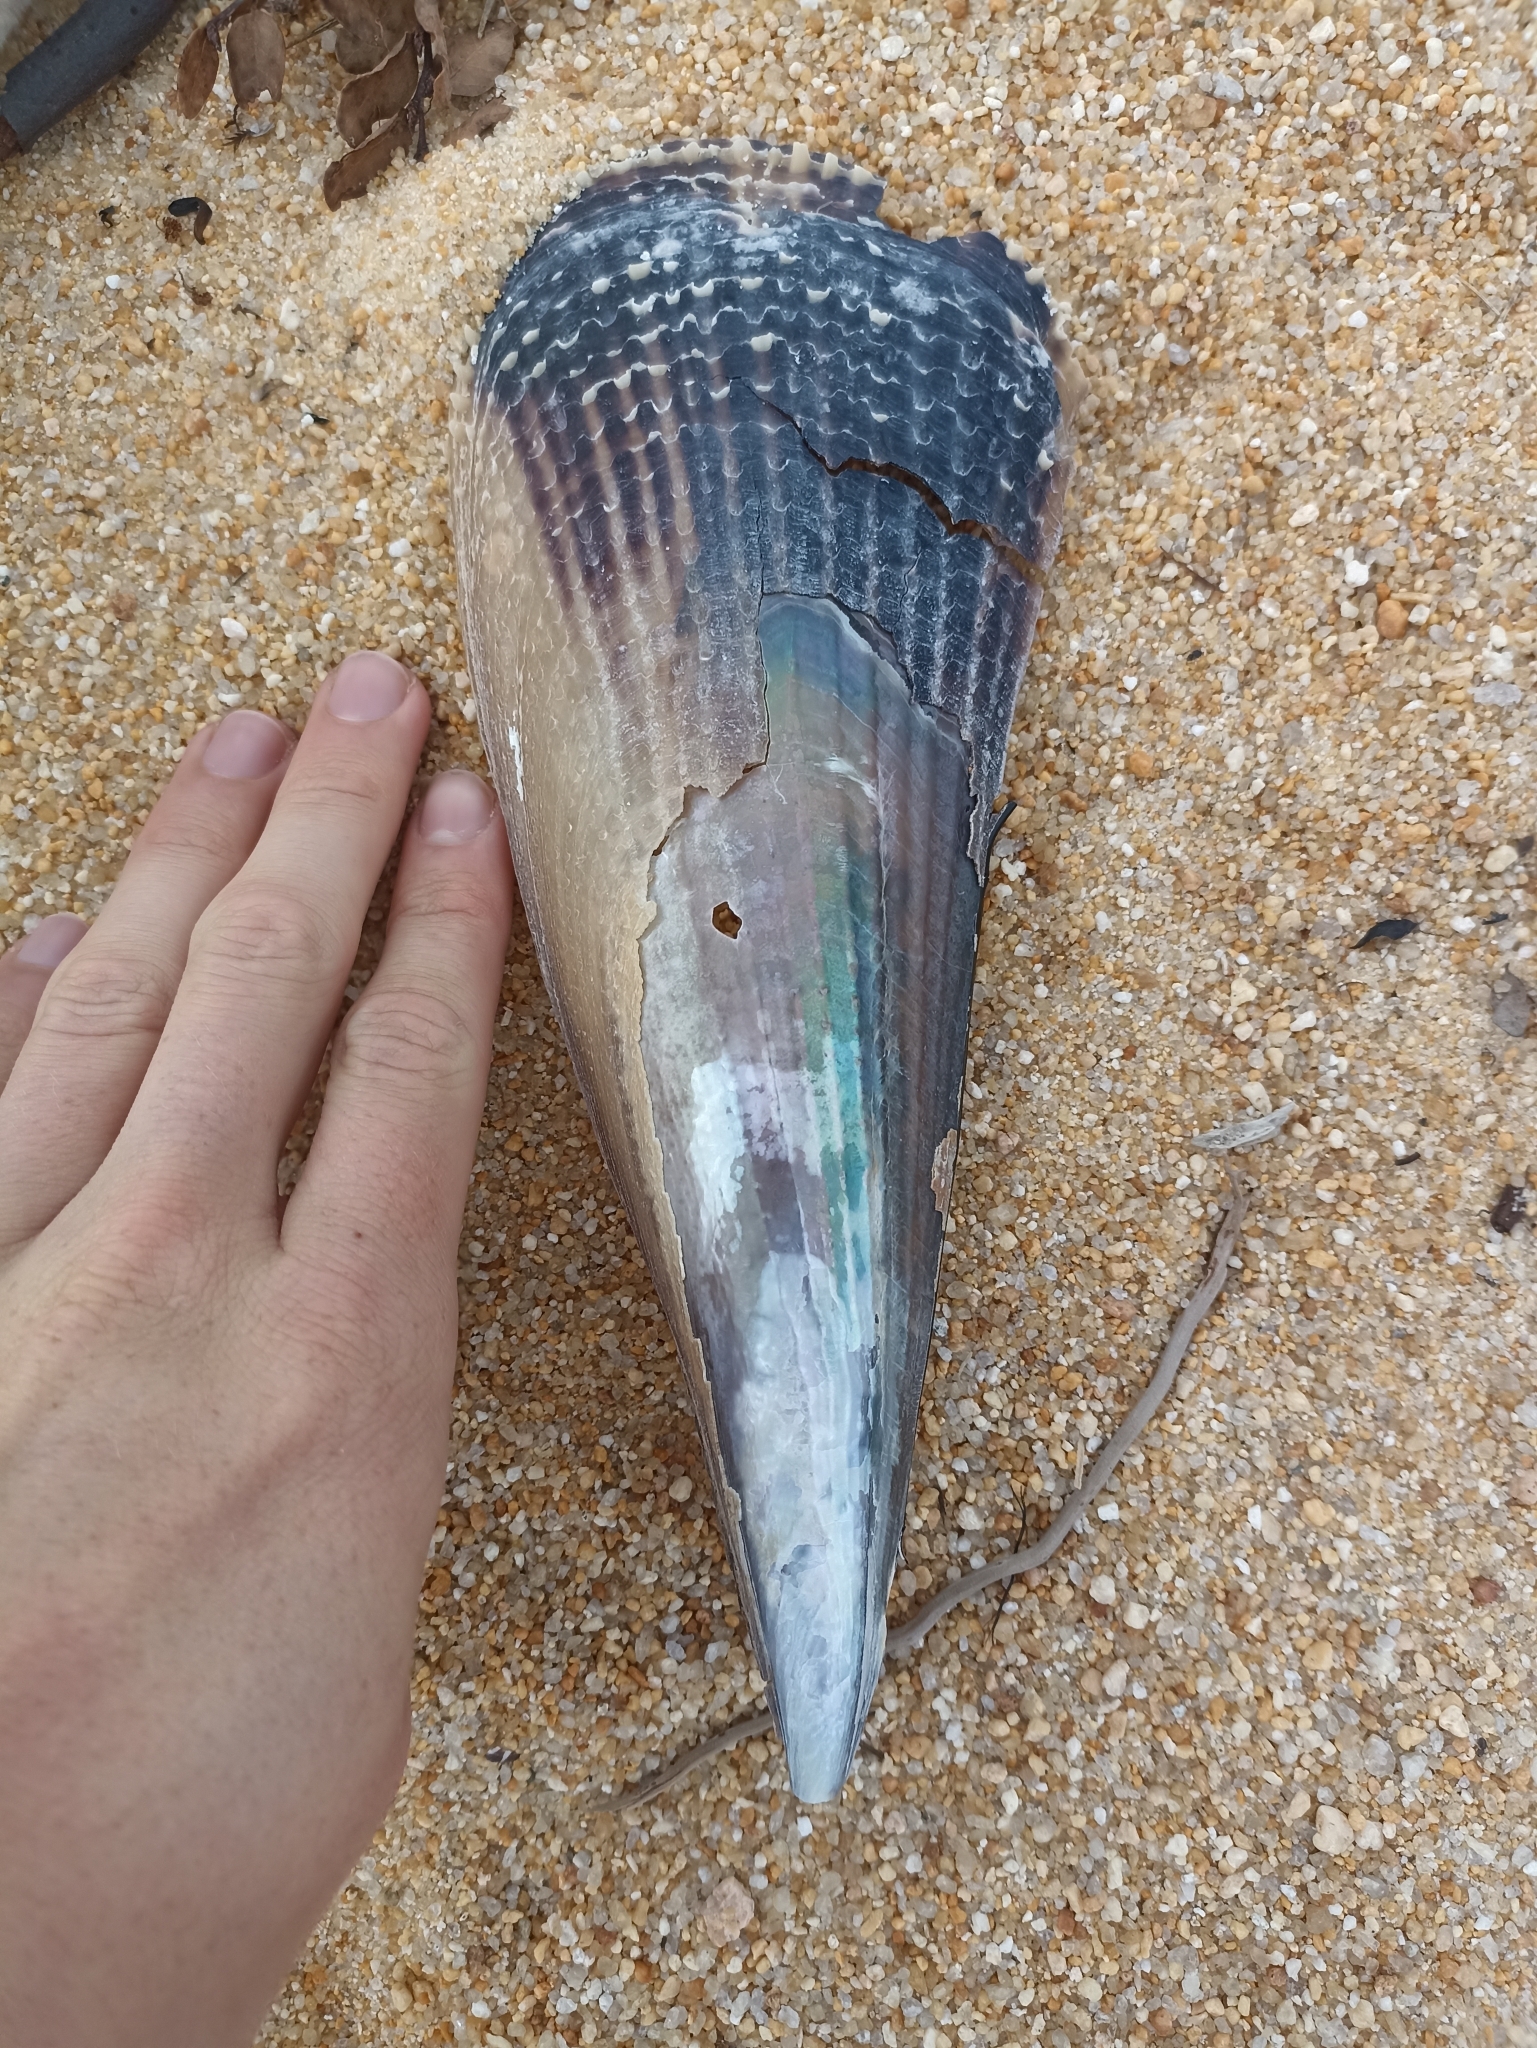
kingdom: Animalia
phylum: Mollusca
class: Bivalvia
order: Ostreida
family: Pinnidae
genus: Atrina
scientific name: Atrina zelandica
